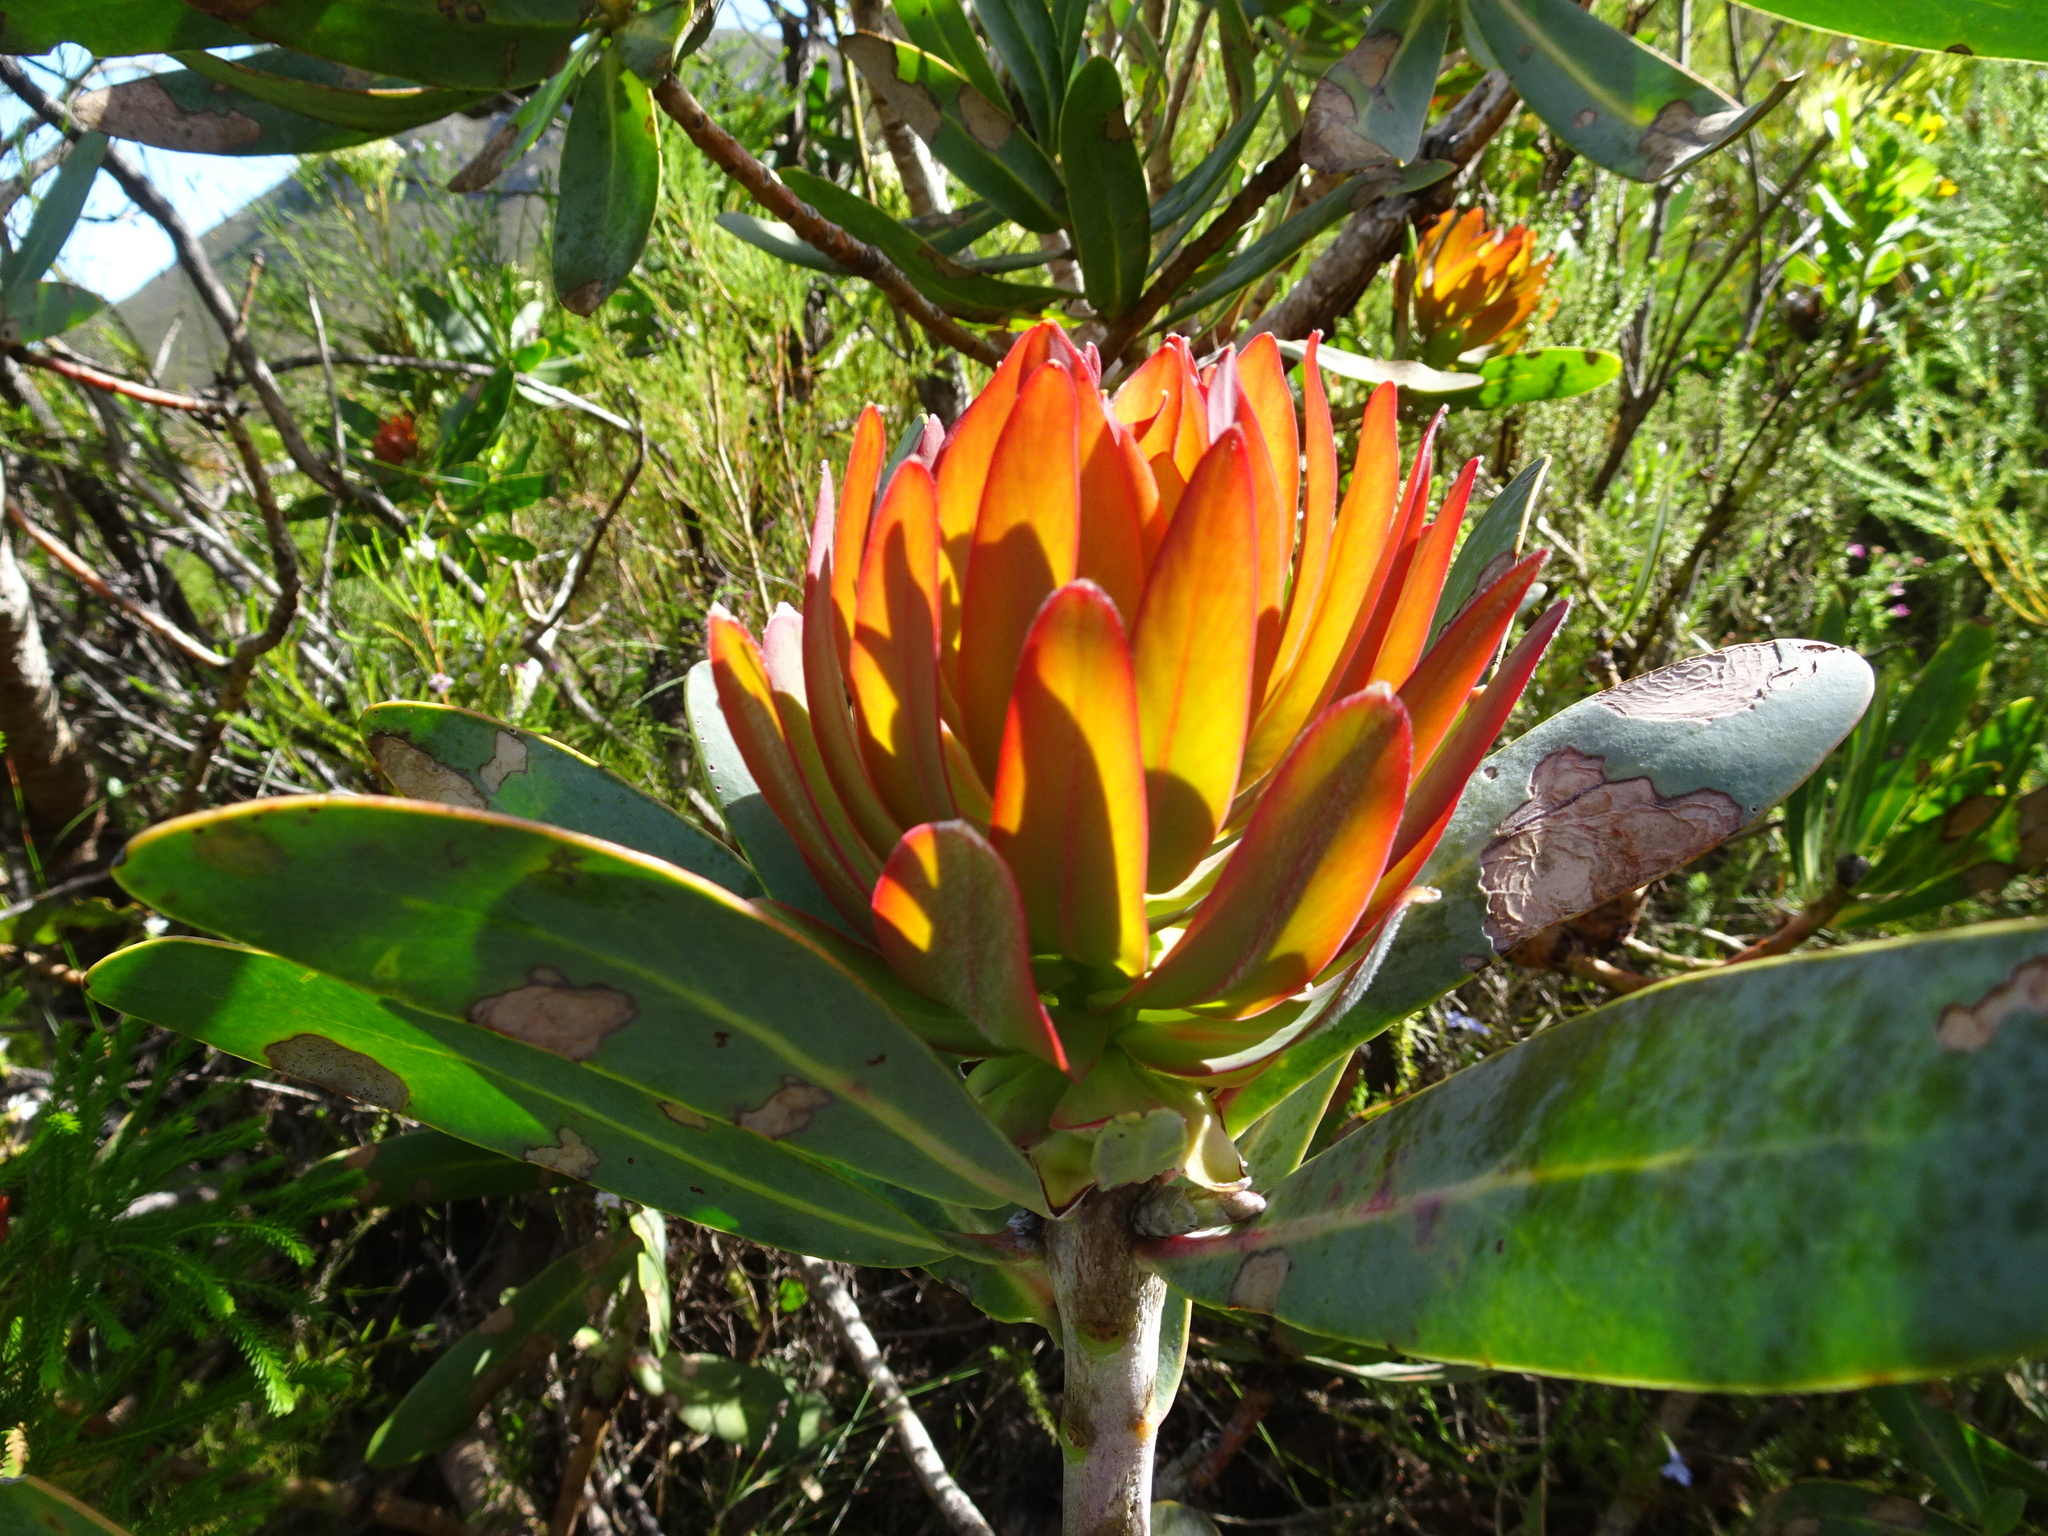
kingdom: Plantae
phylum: Tracheophyta
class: Magnoliopsida
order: Proteales
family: Proteaceae
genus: Protea
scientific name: Protea nitida
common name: Tree protea
